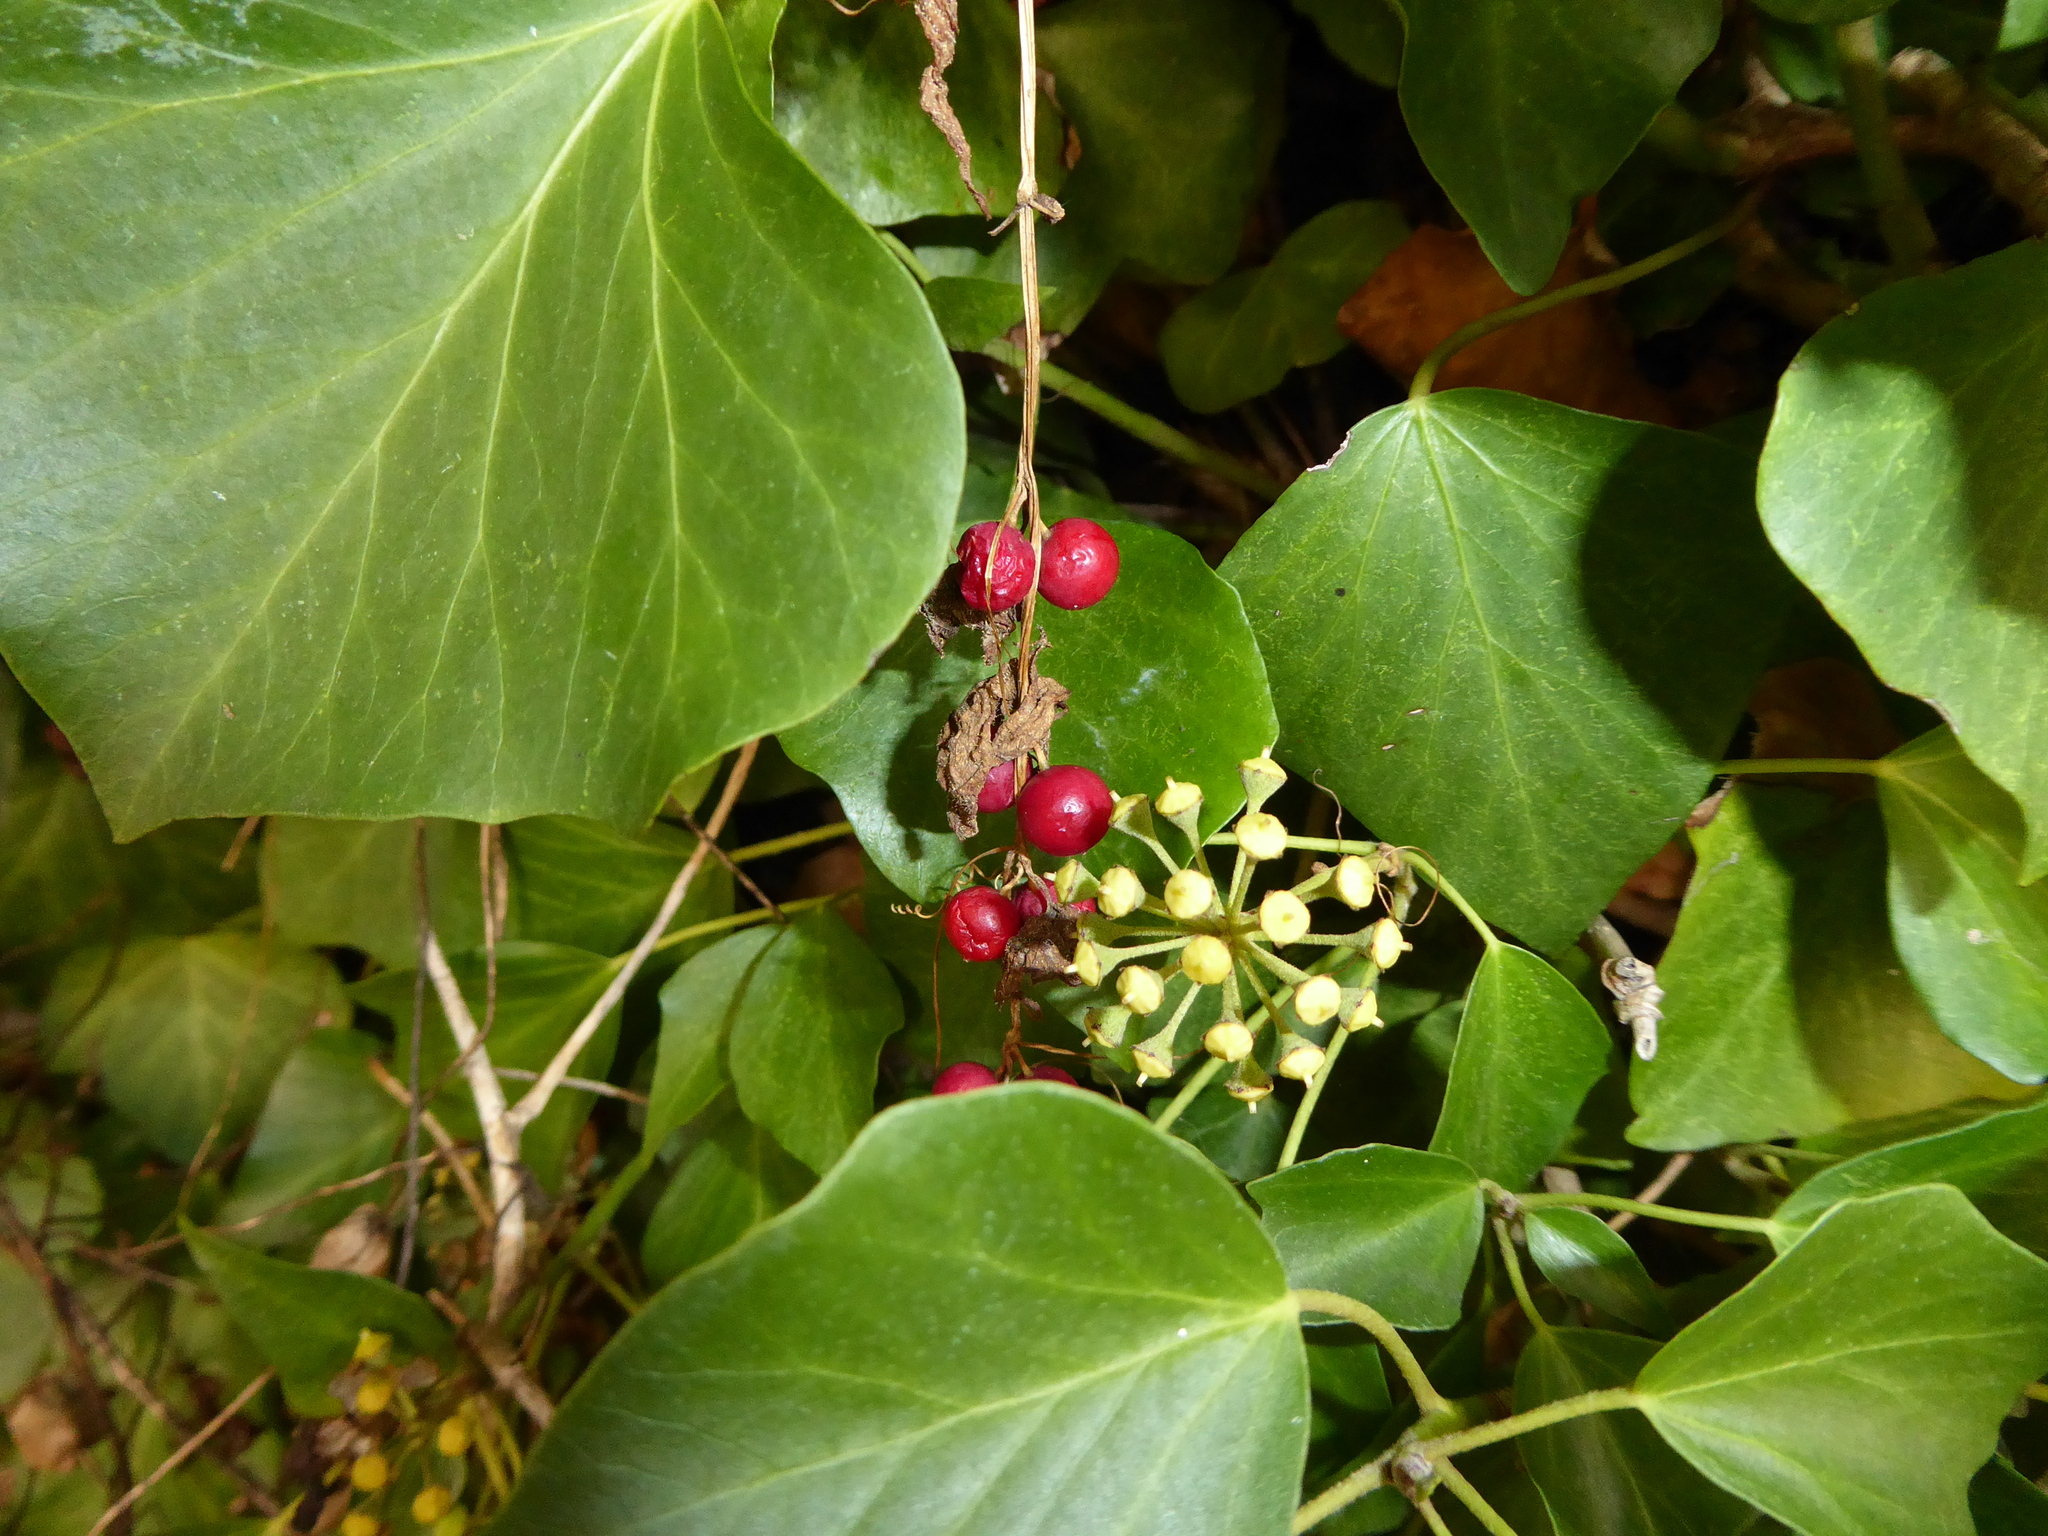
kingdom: Plantae
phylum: Tracheophyta
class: Magnoliopsida
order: Cucurbitales
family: Cucurbitaceae
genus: Bryonia
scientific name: Bryonia dioica
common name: White bryony
